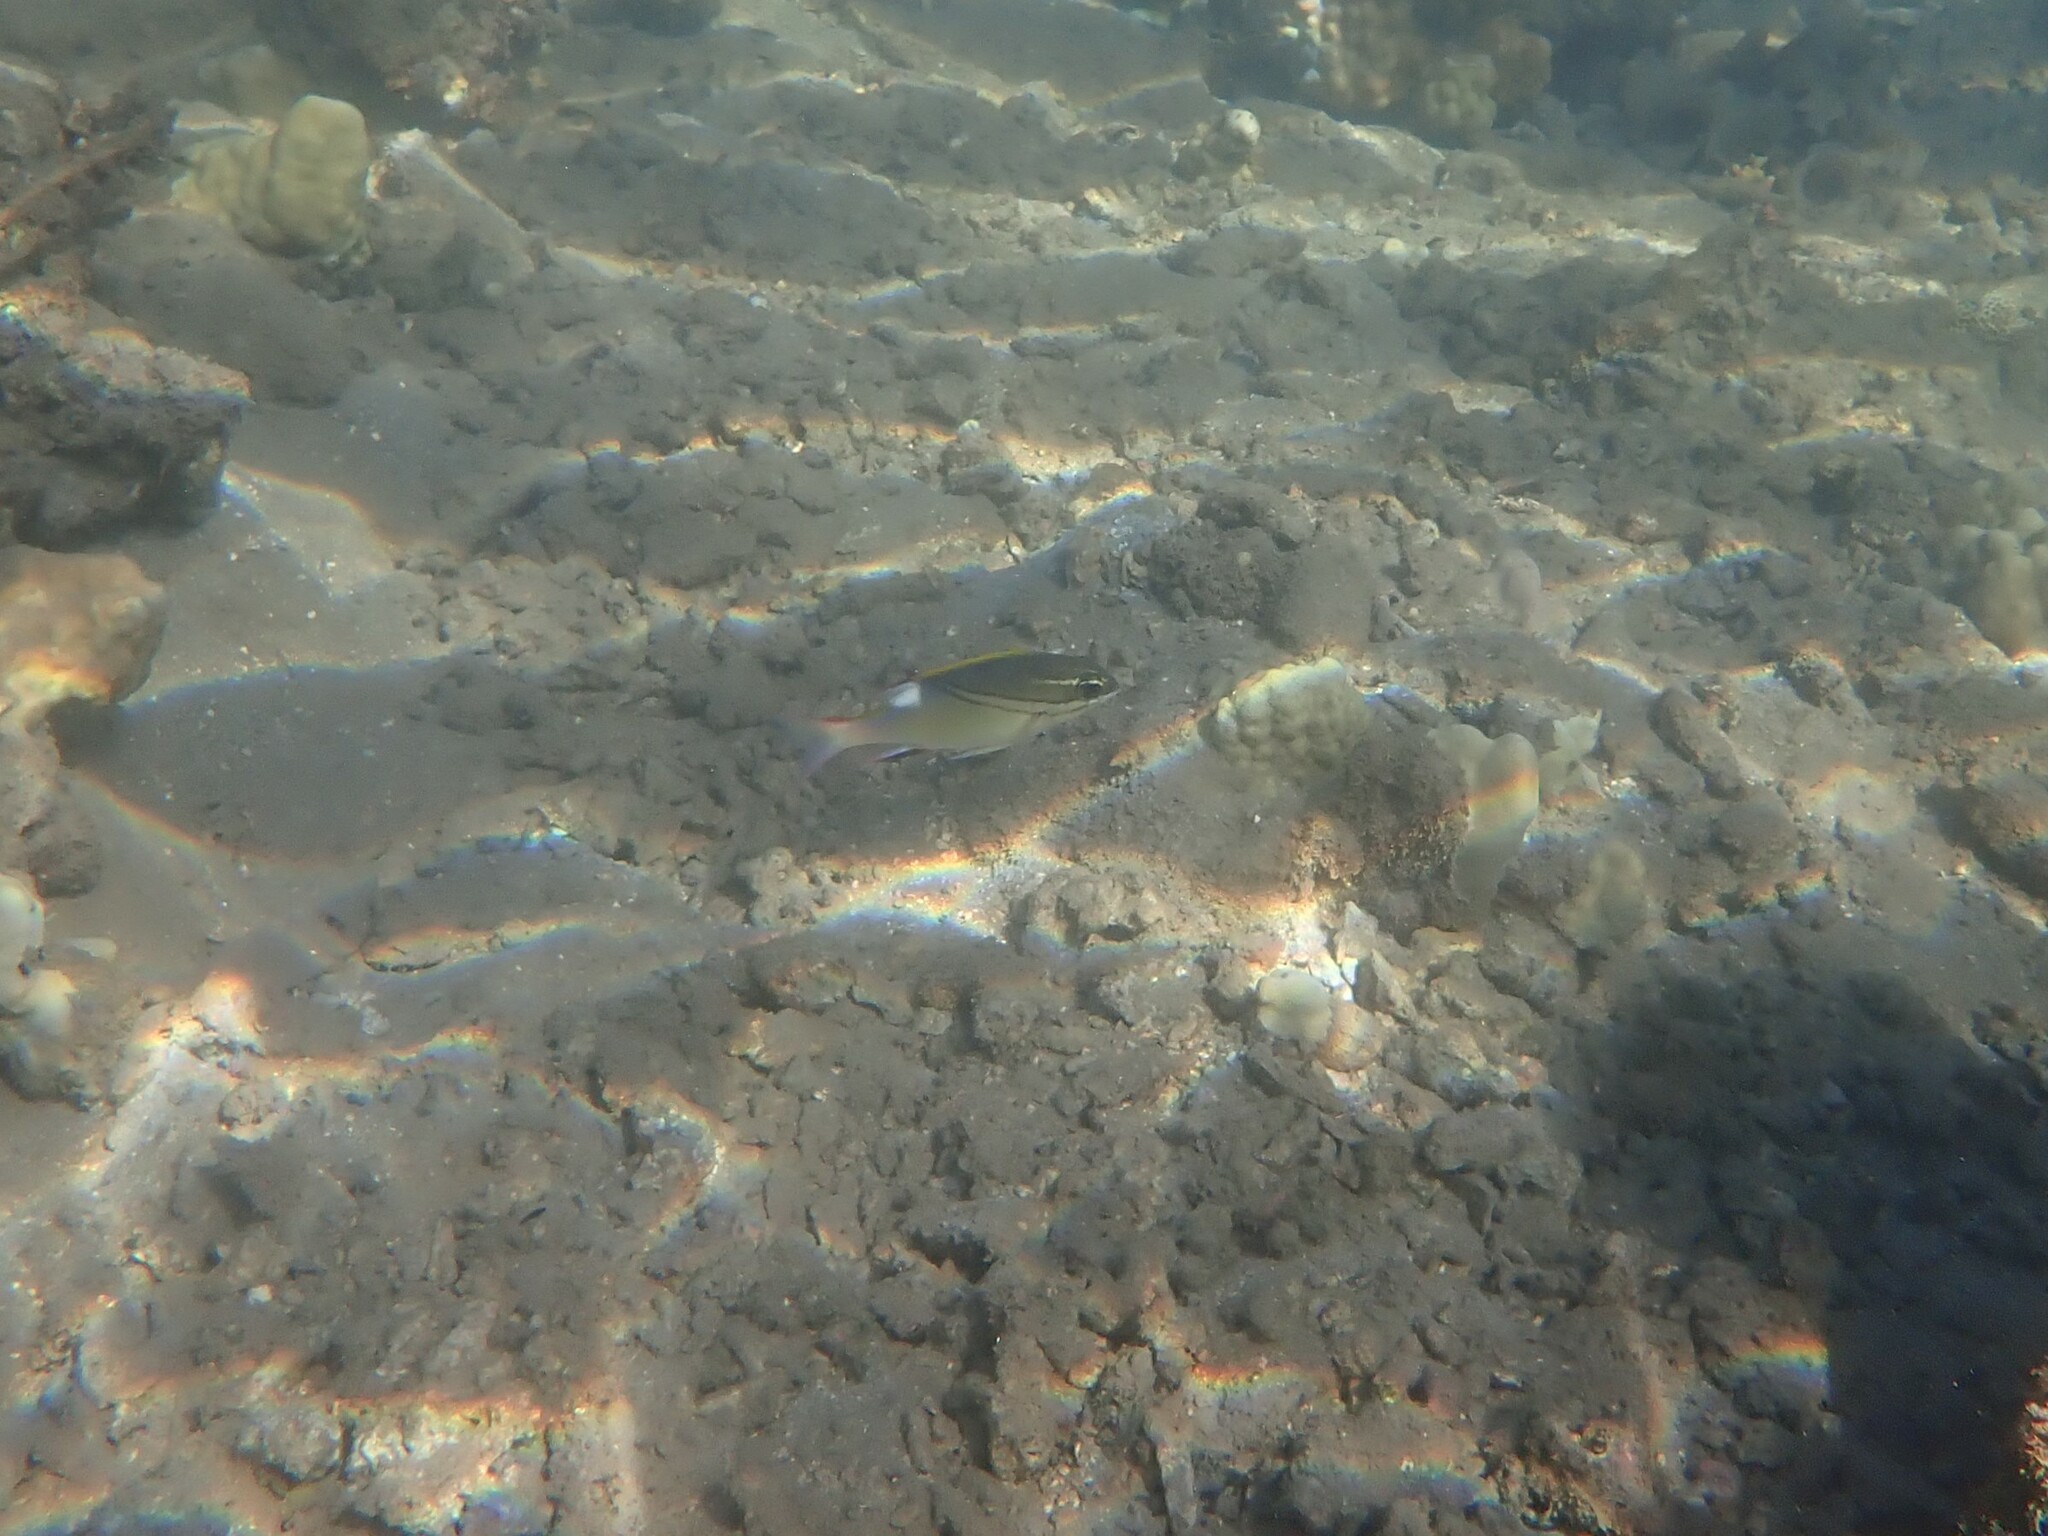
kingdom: Animalia
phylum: Chordata
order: Perciformes
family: Nemipteridae
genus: Scolopsis
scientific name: Scolopsis bilineata
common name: Two-lined monocle bream
